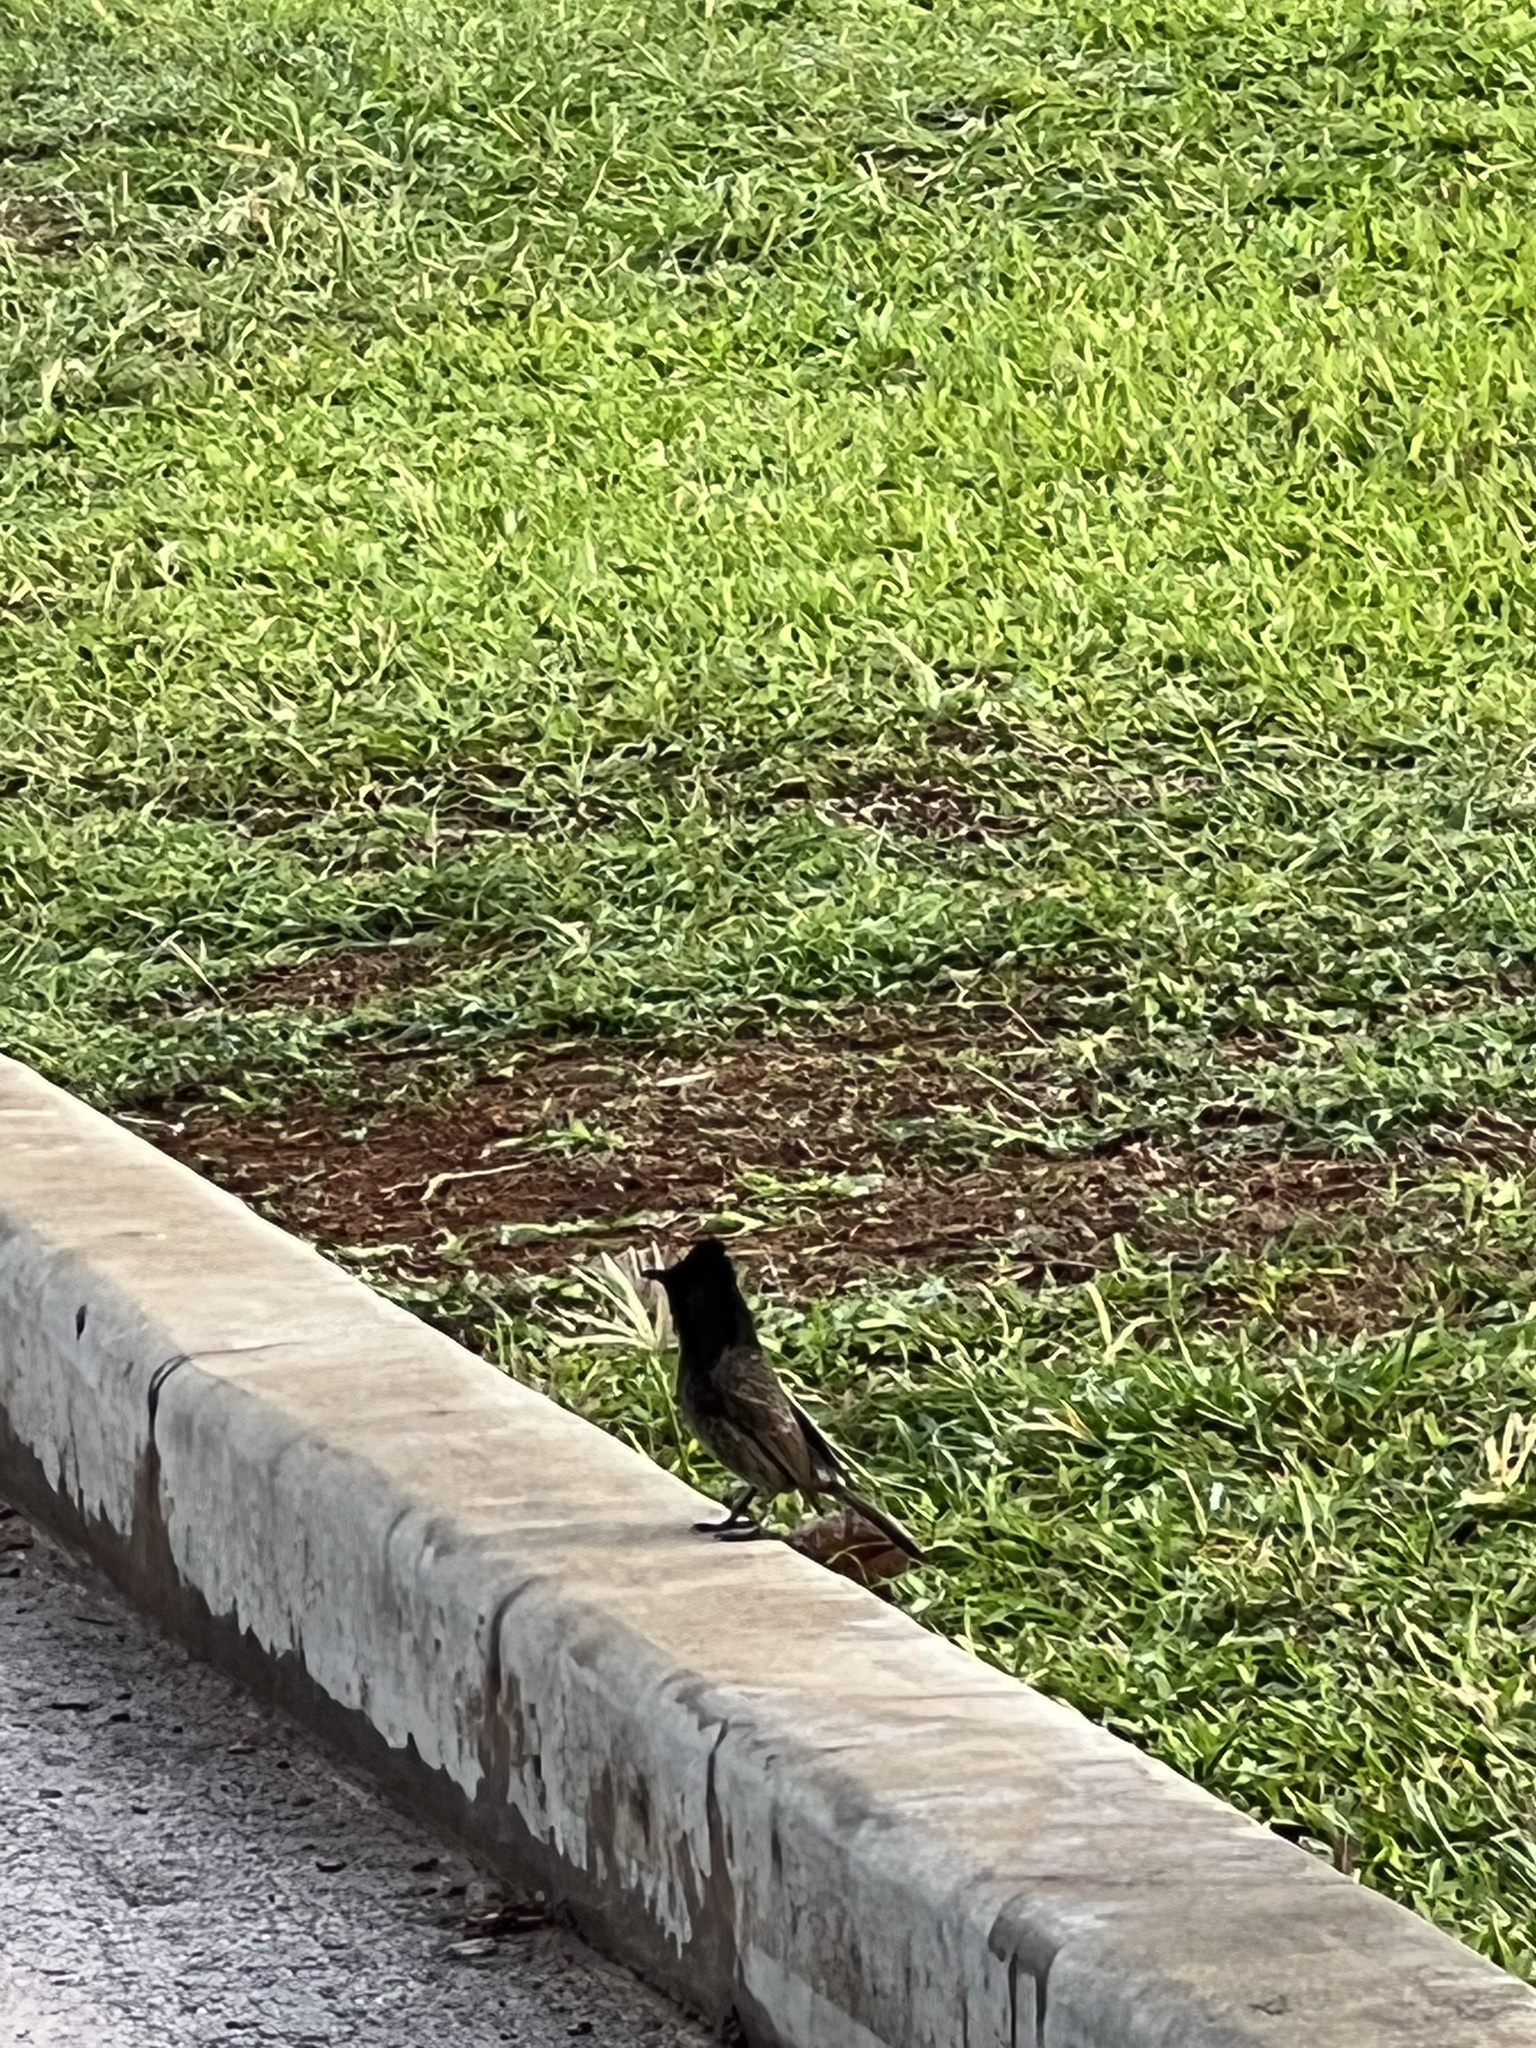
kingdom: Animalia
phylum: Chordata
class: Aves
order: Passeriformes
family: Pycnonotidae
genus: Pycnonotus
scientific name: Pycnonotus cafer
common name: Red-vented bulbul
